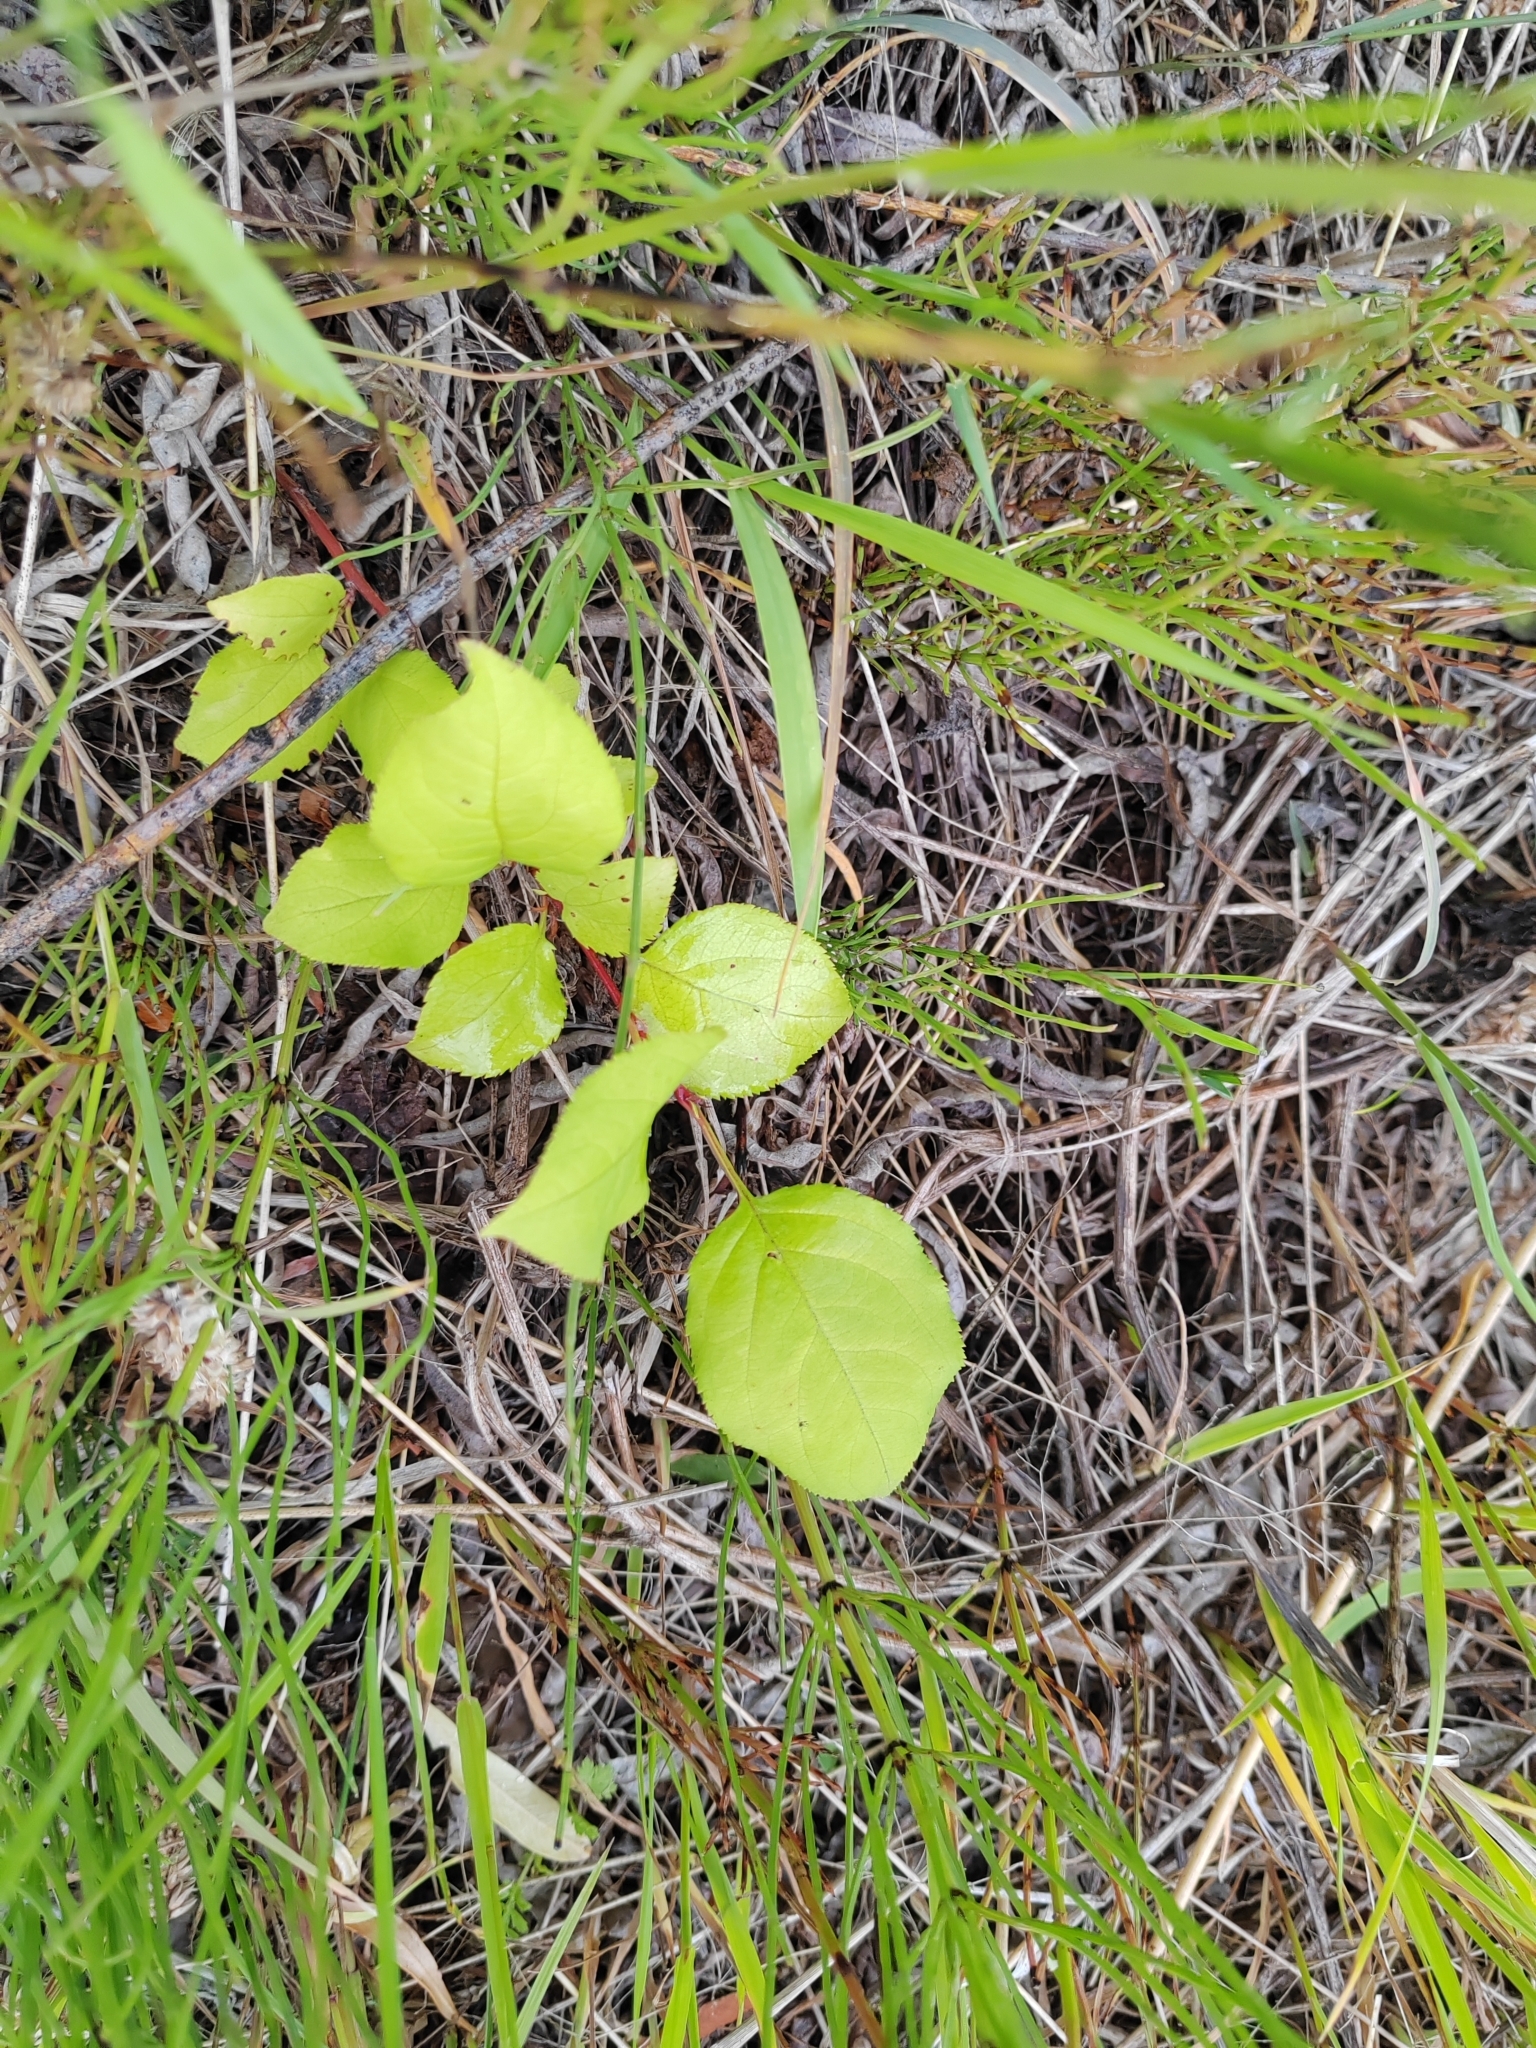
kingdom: Plantae
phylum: Tracheophyta
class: Magnoliopsida
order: Rosales
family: Rosaceae
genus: Malus
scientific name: Malus baccata
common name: Siberian crab
